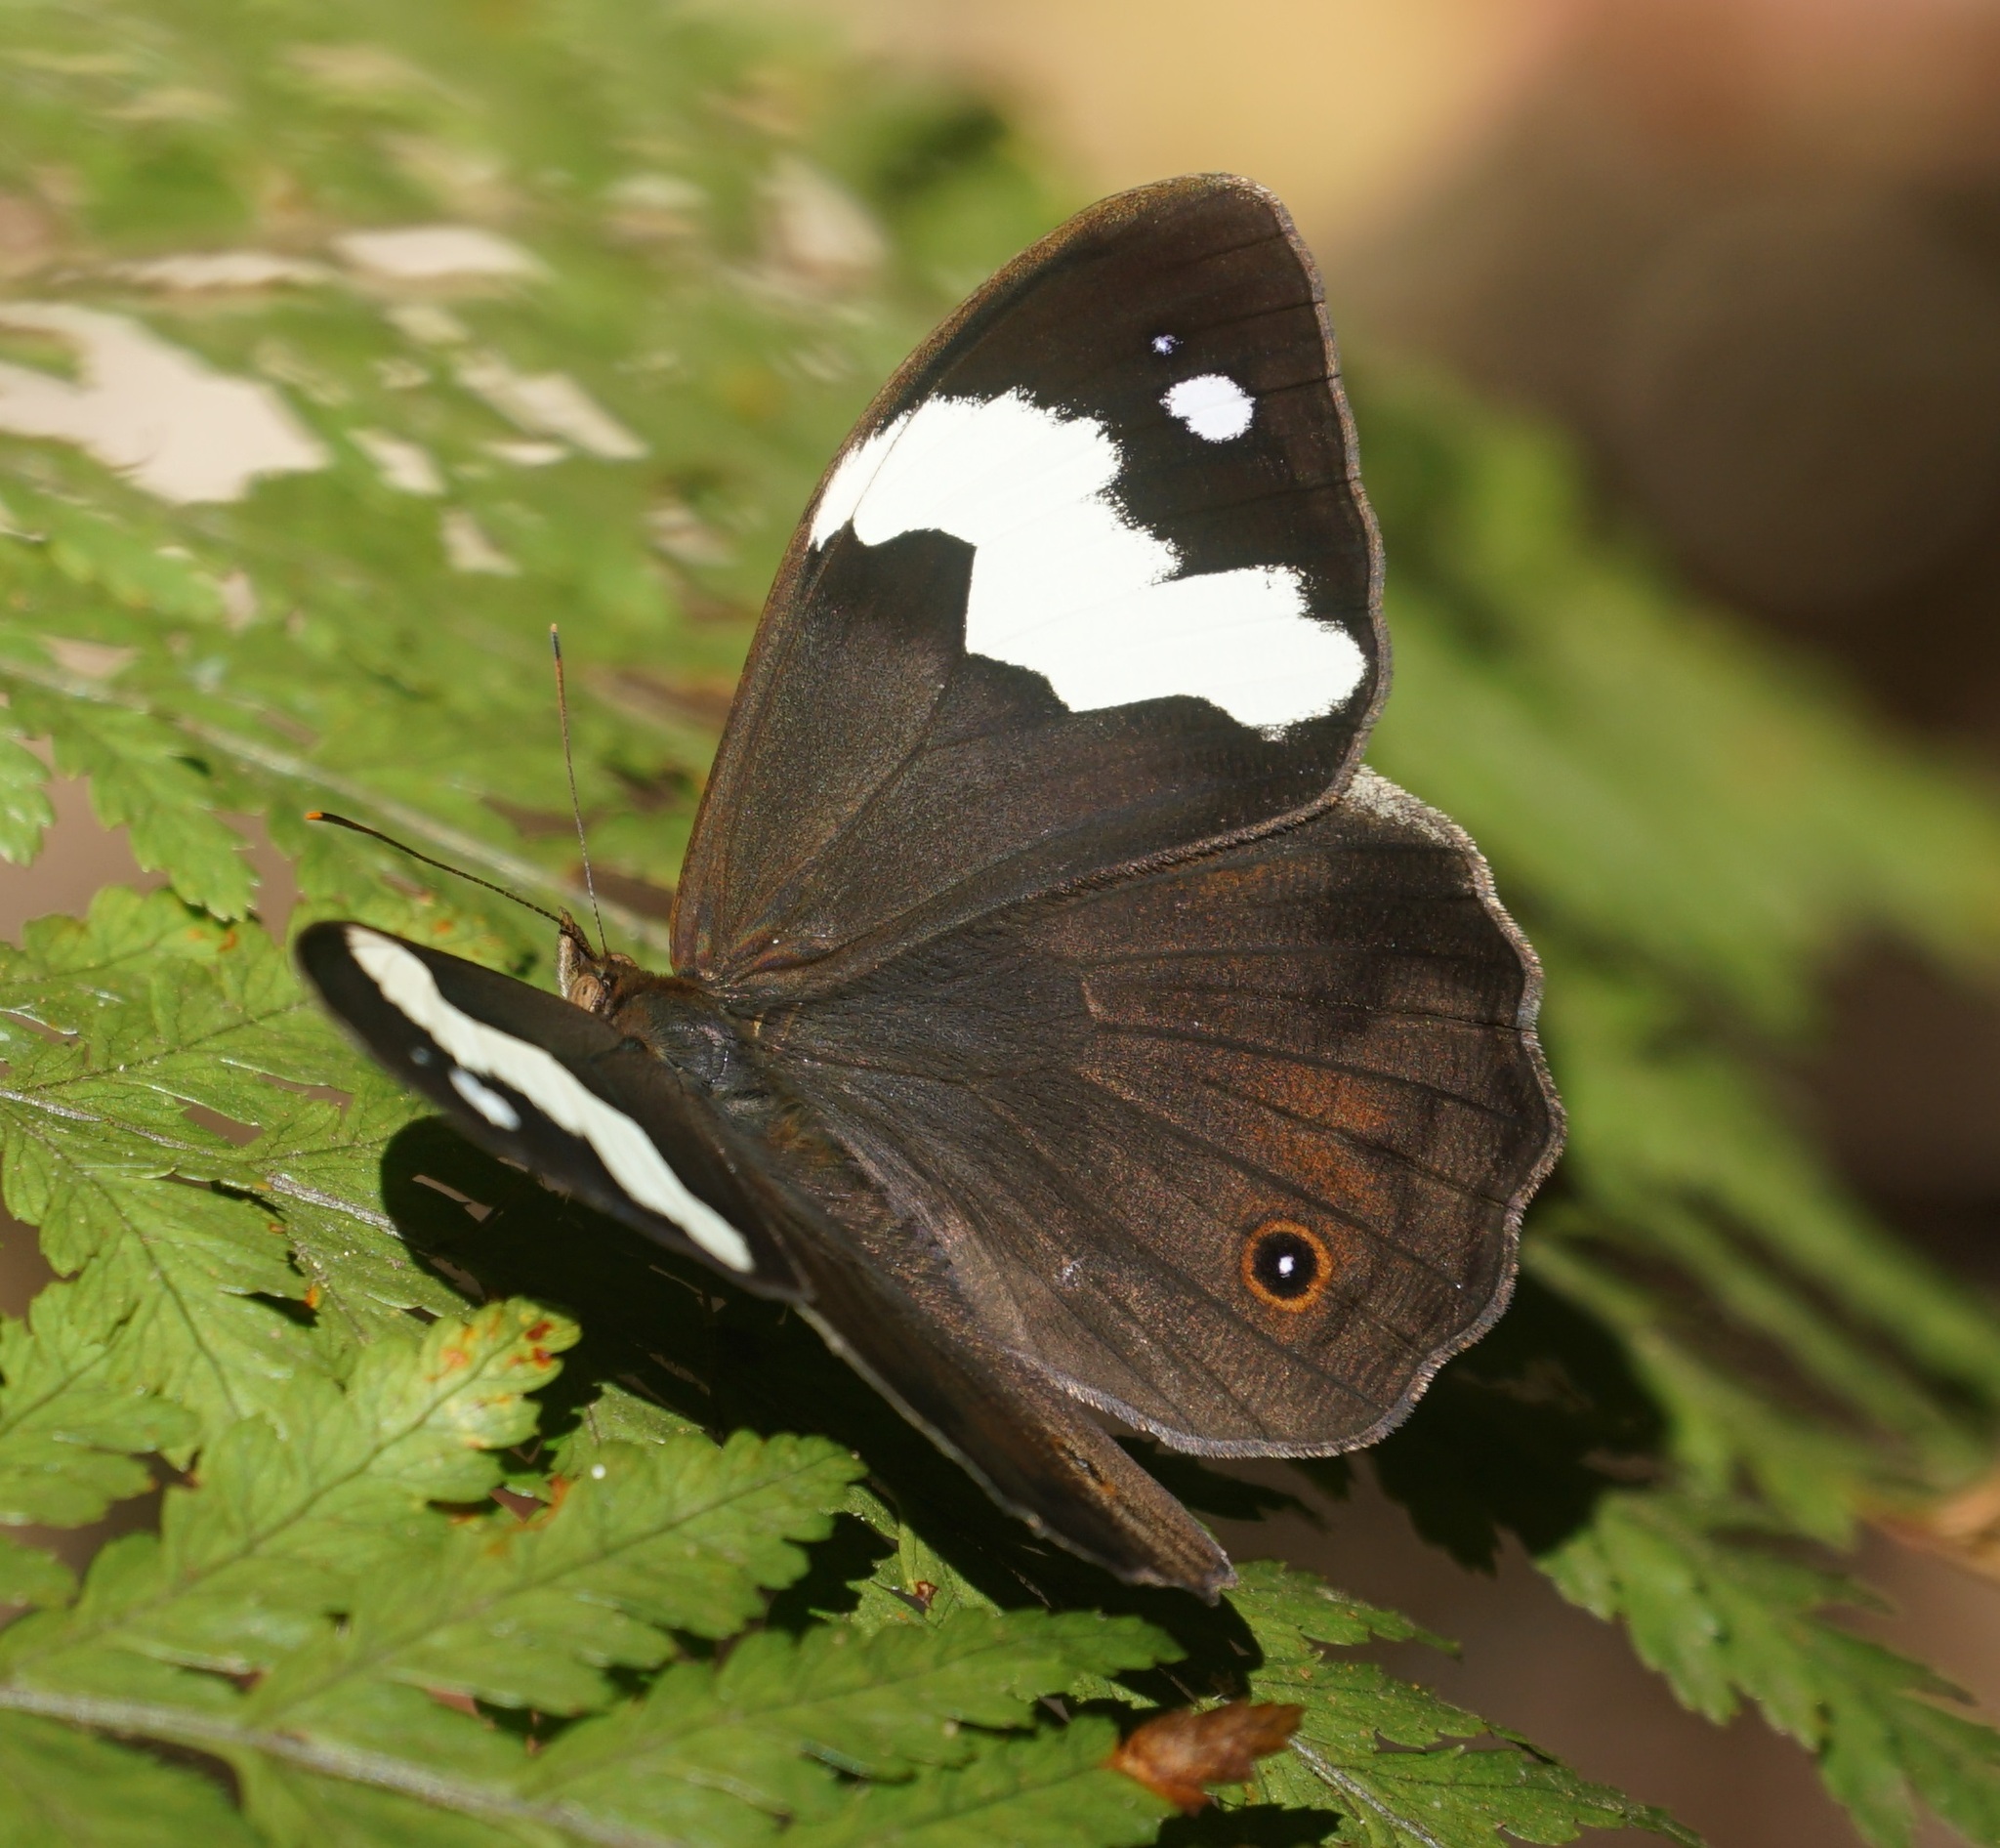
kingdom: Animalia
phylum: Arthropoda
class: Insecta
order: Lepidoptera
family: Nymphalidae
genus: Heteronympha
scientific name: Heteronympha mirifica
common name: Wonder brown
